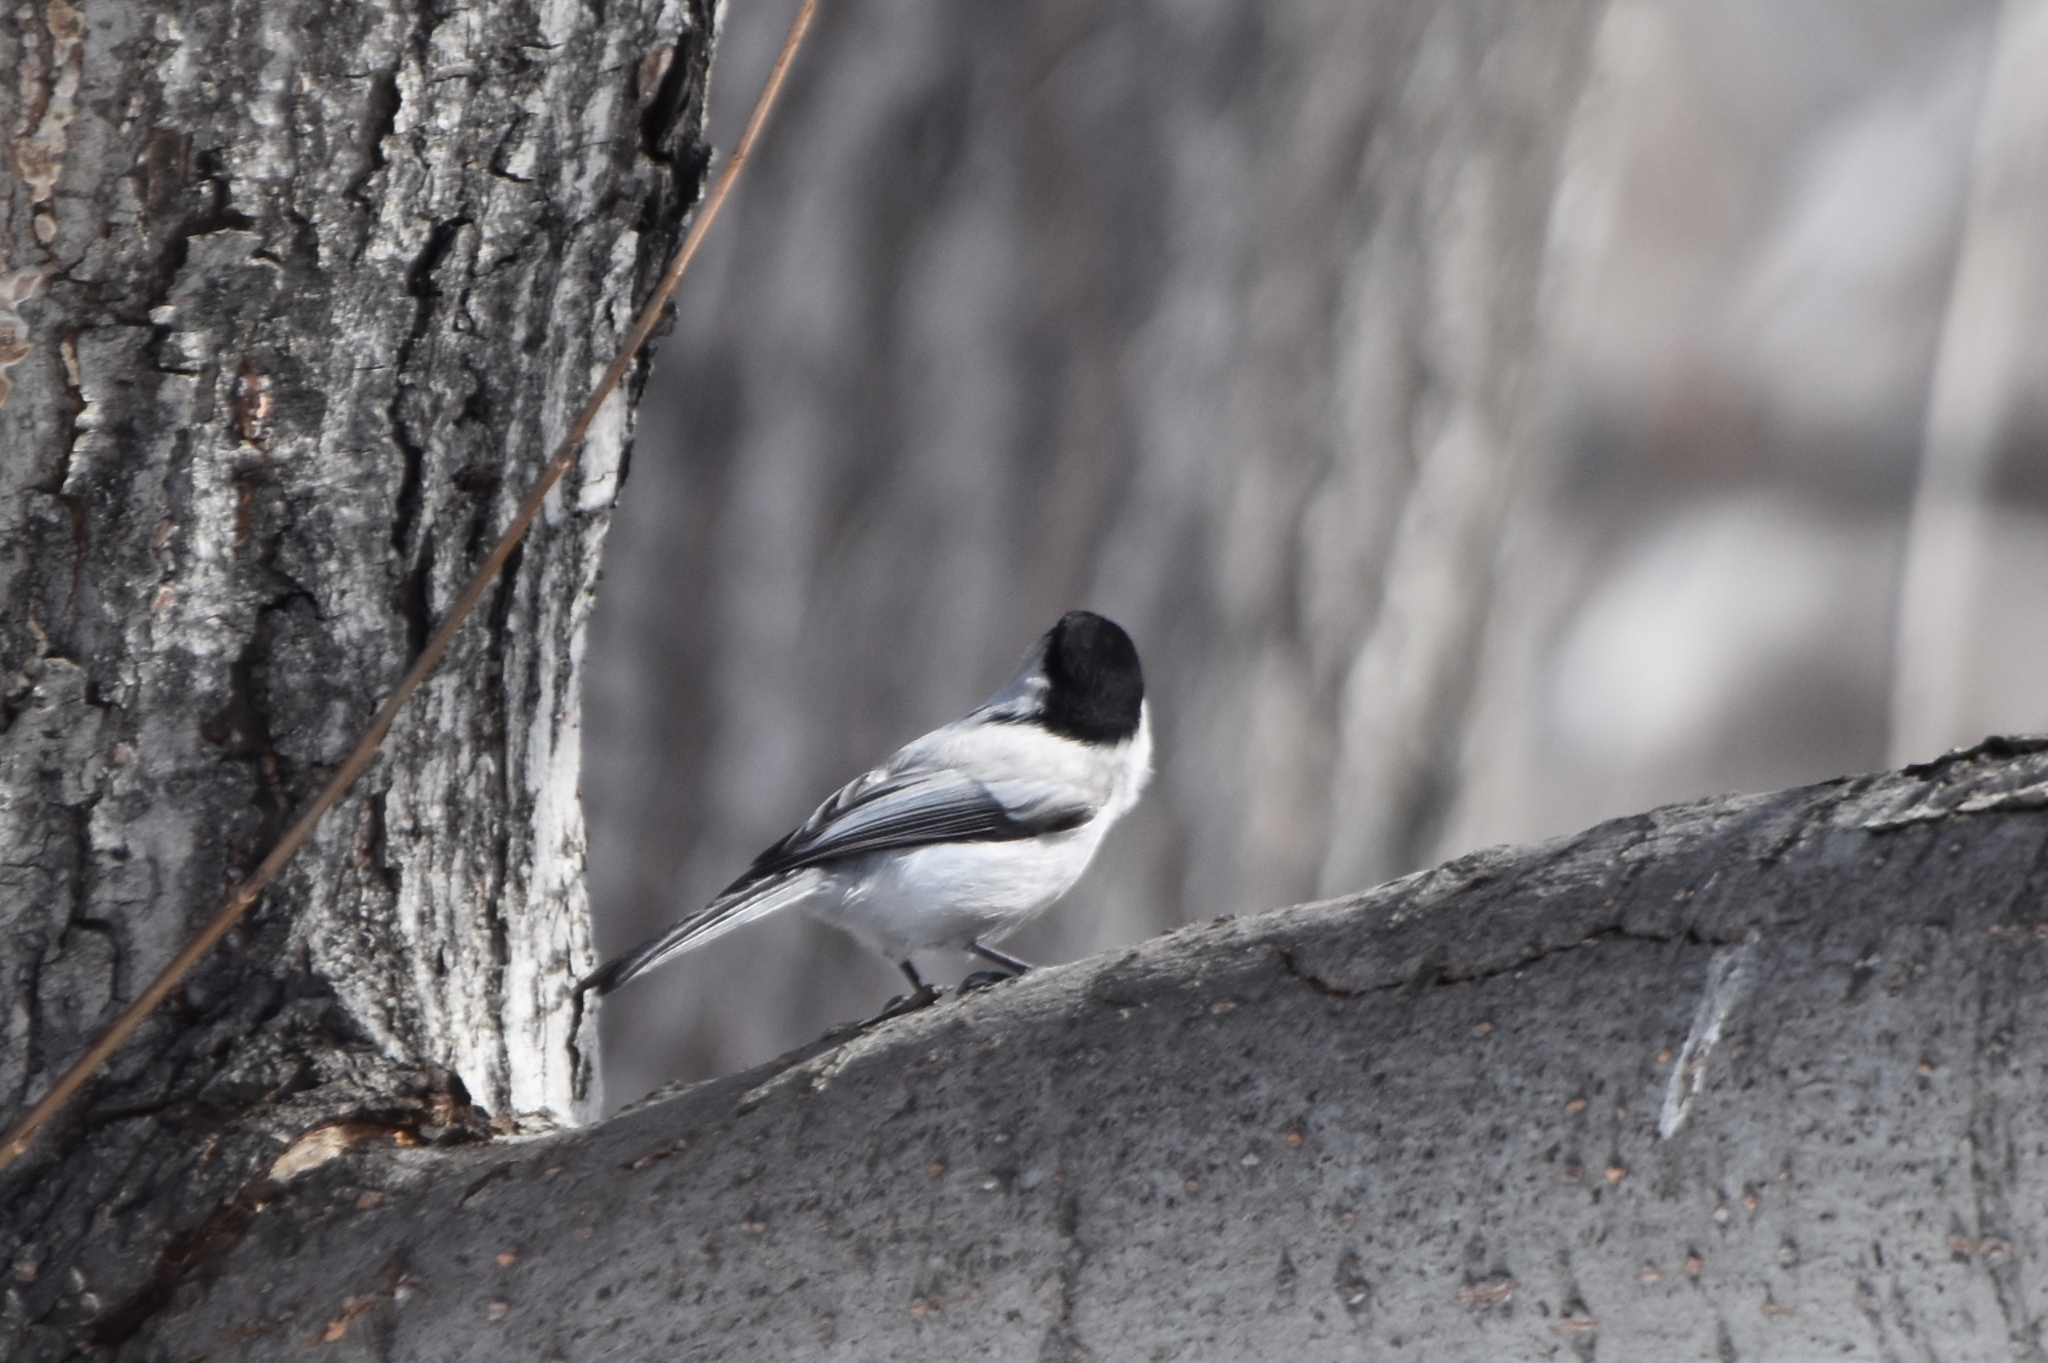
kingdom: Animalia
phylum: Chordata
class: Aves
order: Passeriformes
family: Paridae
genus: Poecile
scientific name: Poecile montanus
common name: Willow tit
